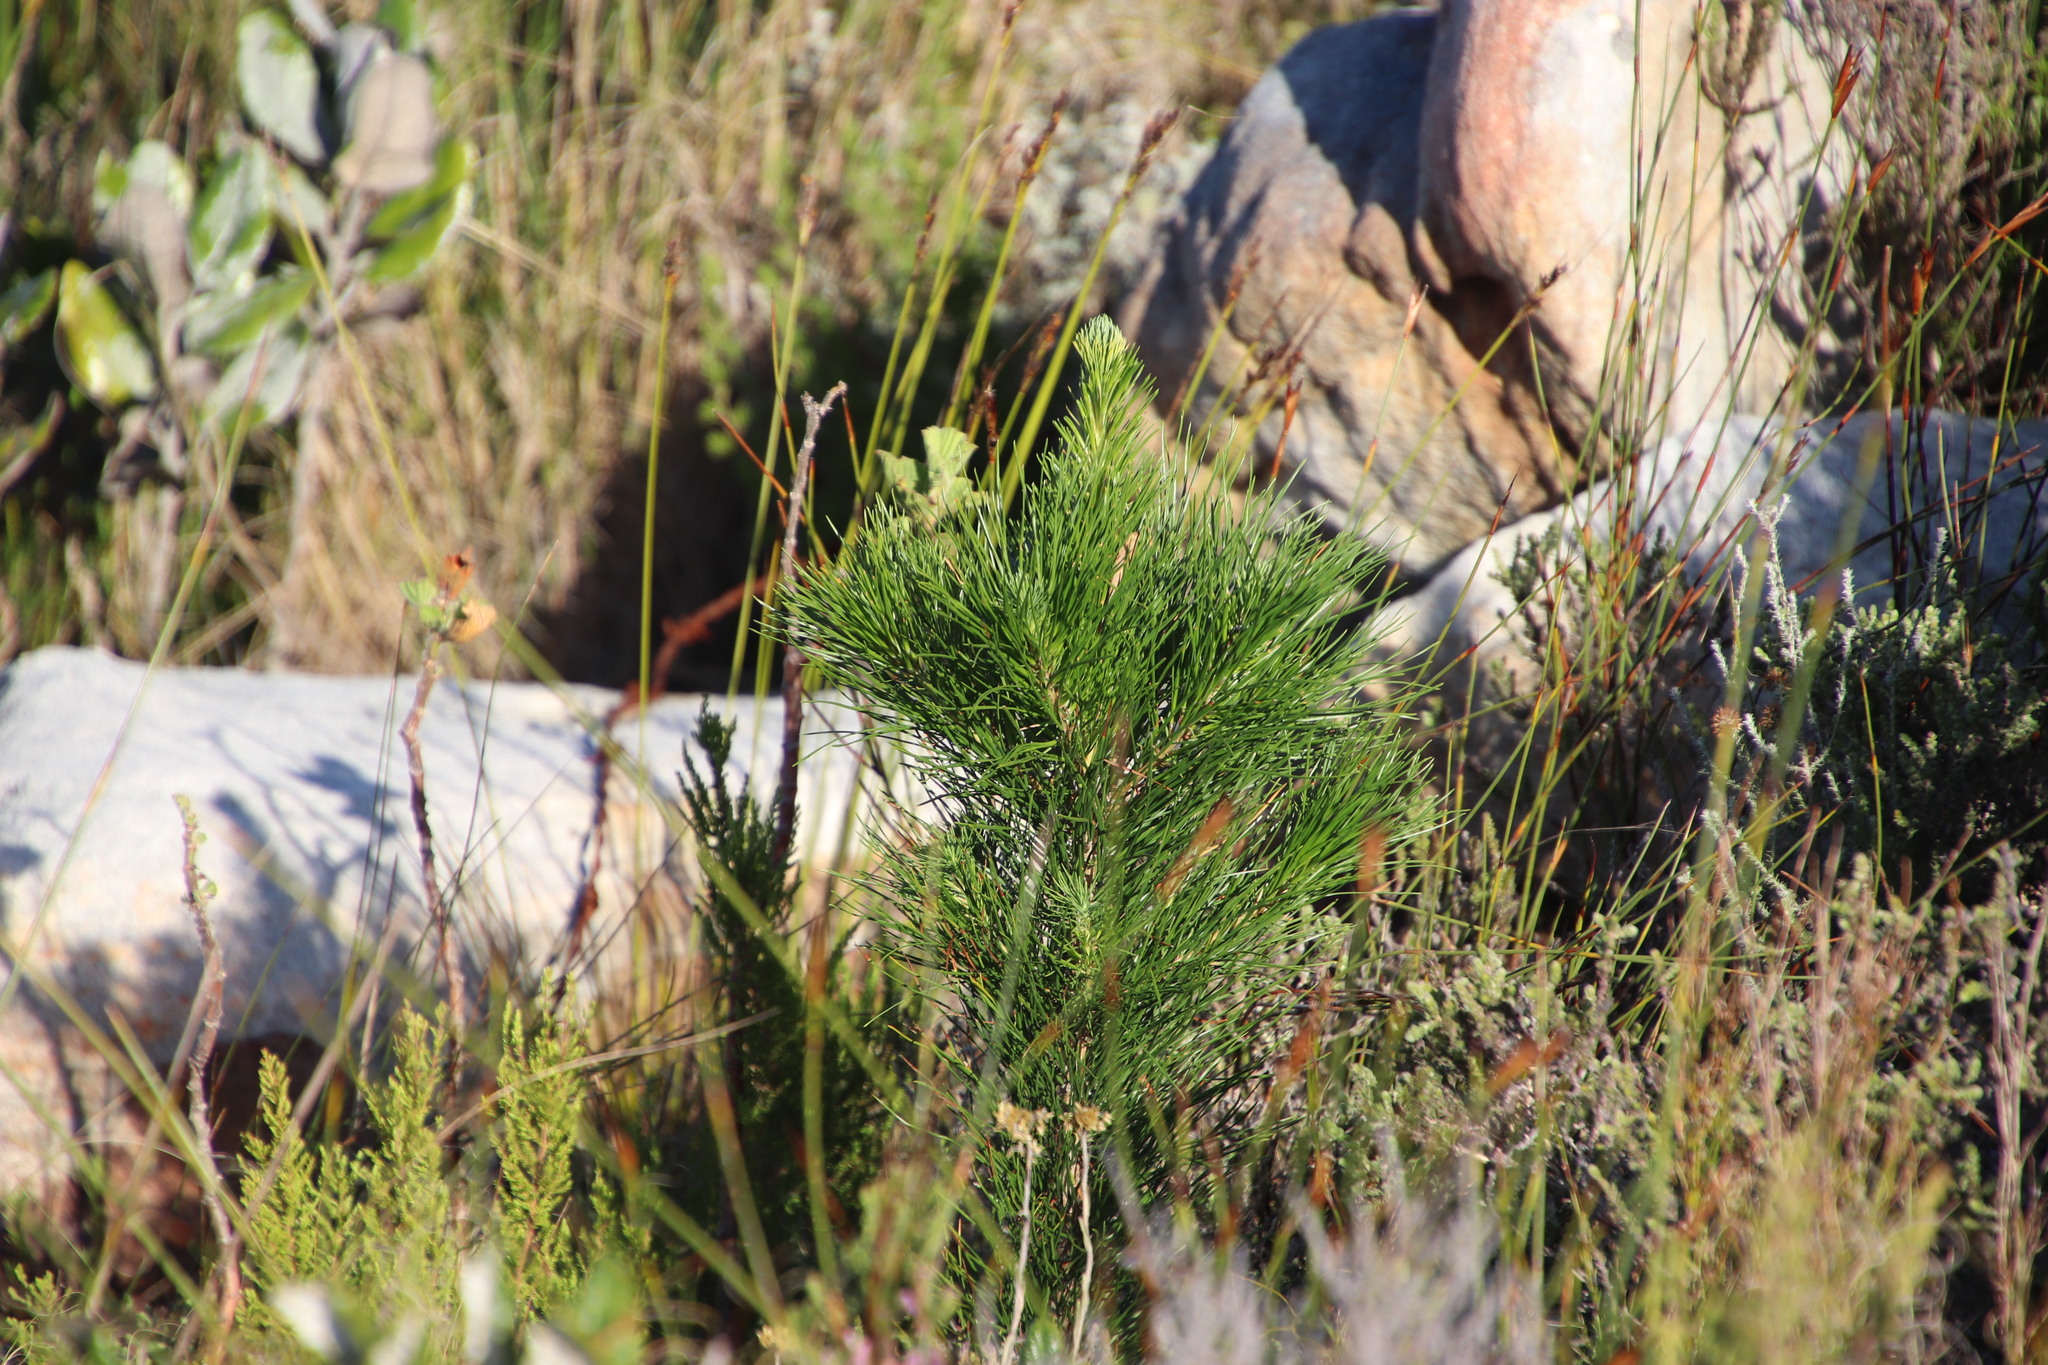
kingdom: Plantae
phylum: Tracheophyta
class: Pinopsida
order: Pinales
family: Pinaceae
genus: Pinus
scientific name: Pinus radiata
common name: Monterey pine
